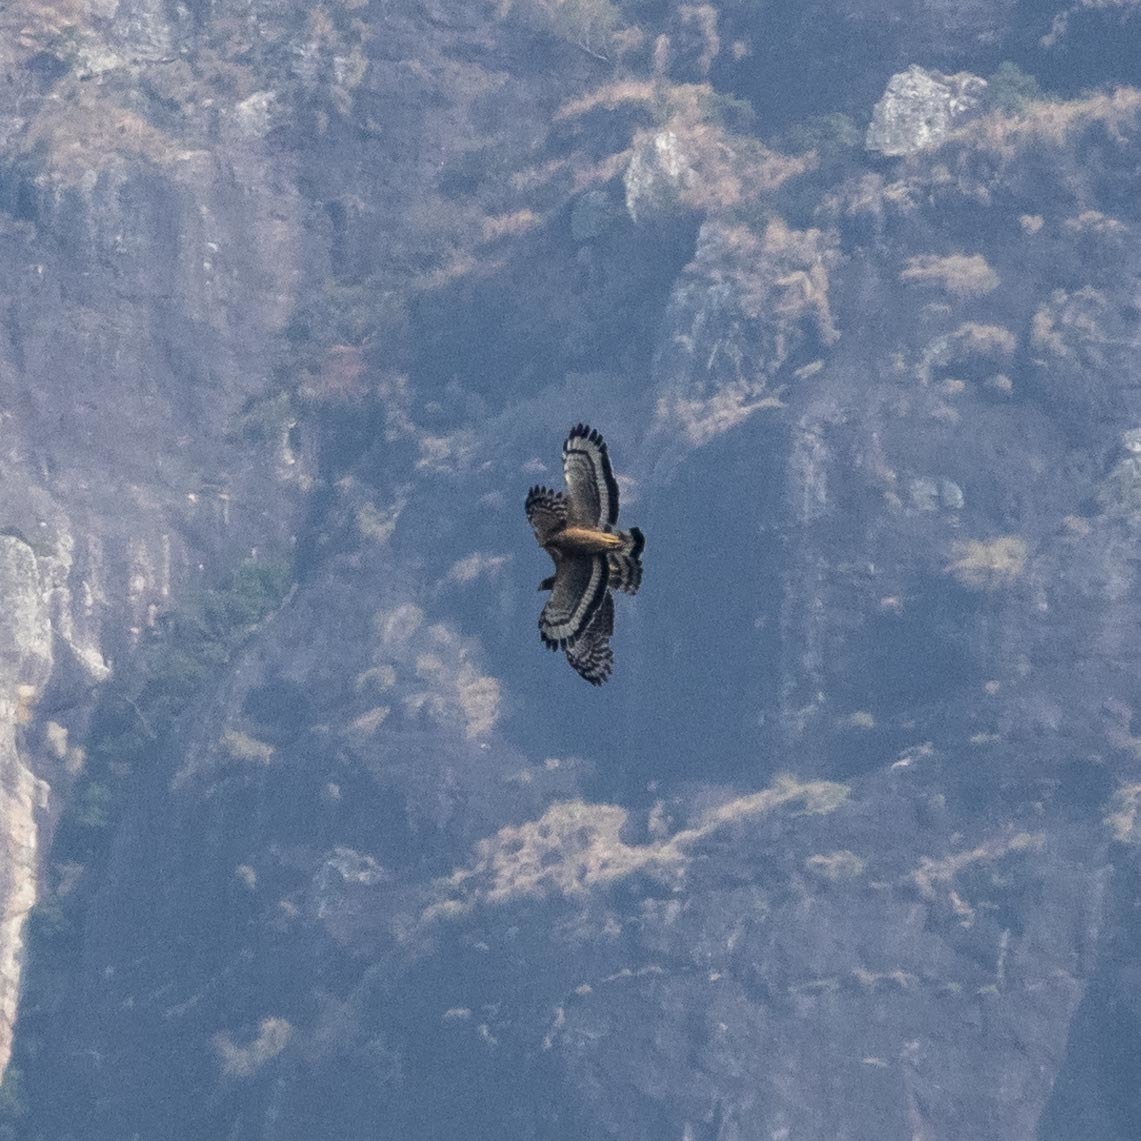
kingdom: Animalia
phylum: Chordata
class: Aves
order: Accipitriformes
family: Accipitridae
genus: Spilornis
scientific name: Spilornis cheela
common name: Crested serpent eagle
